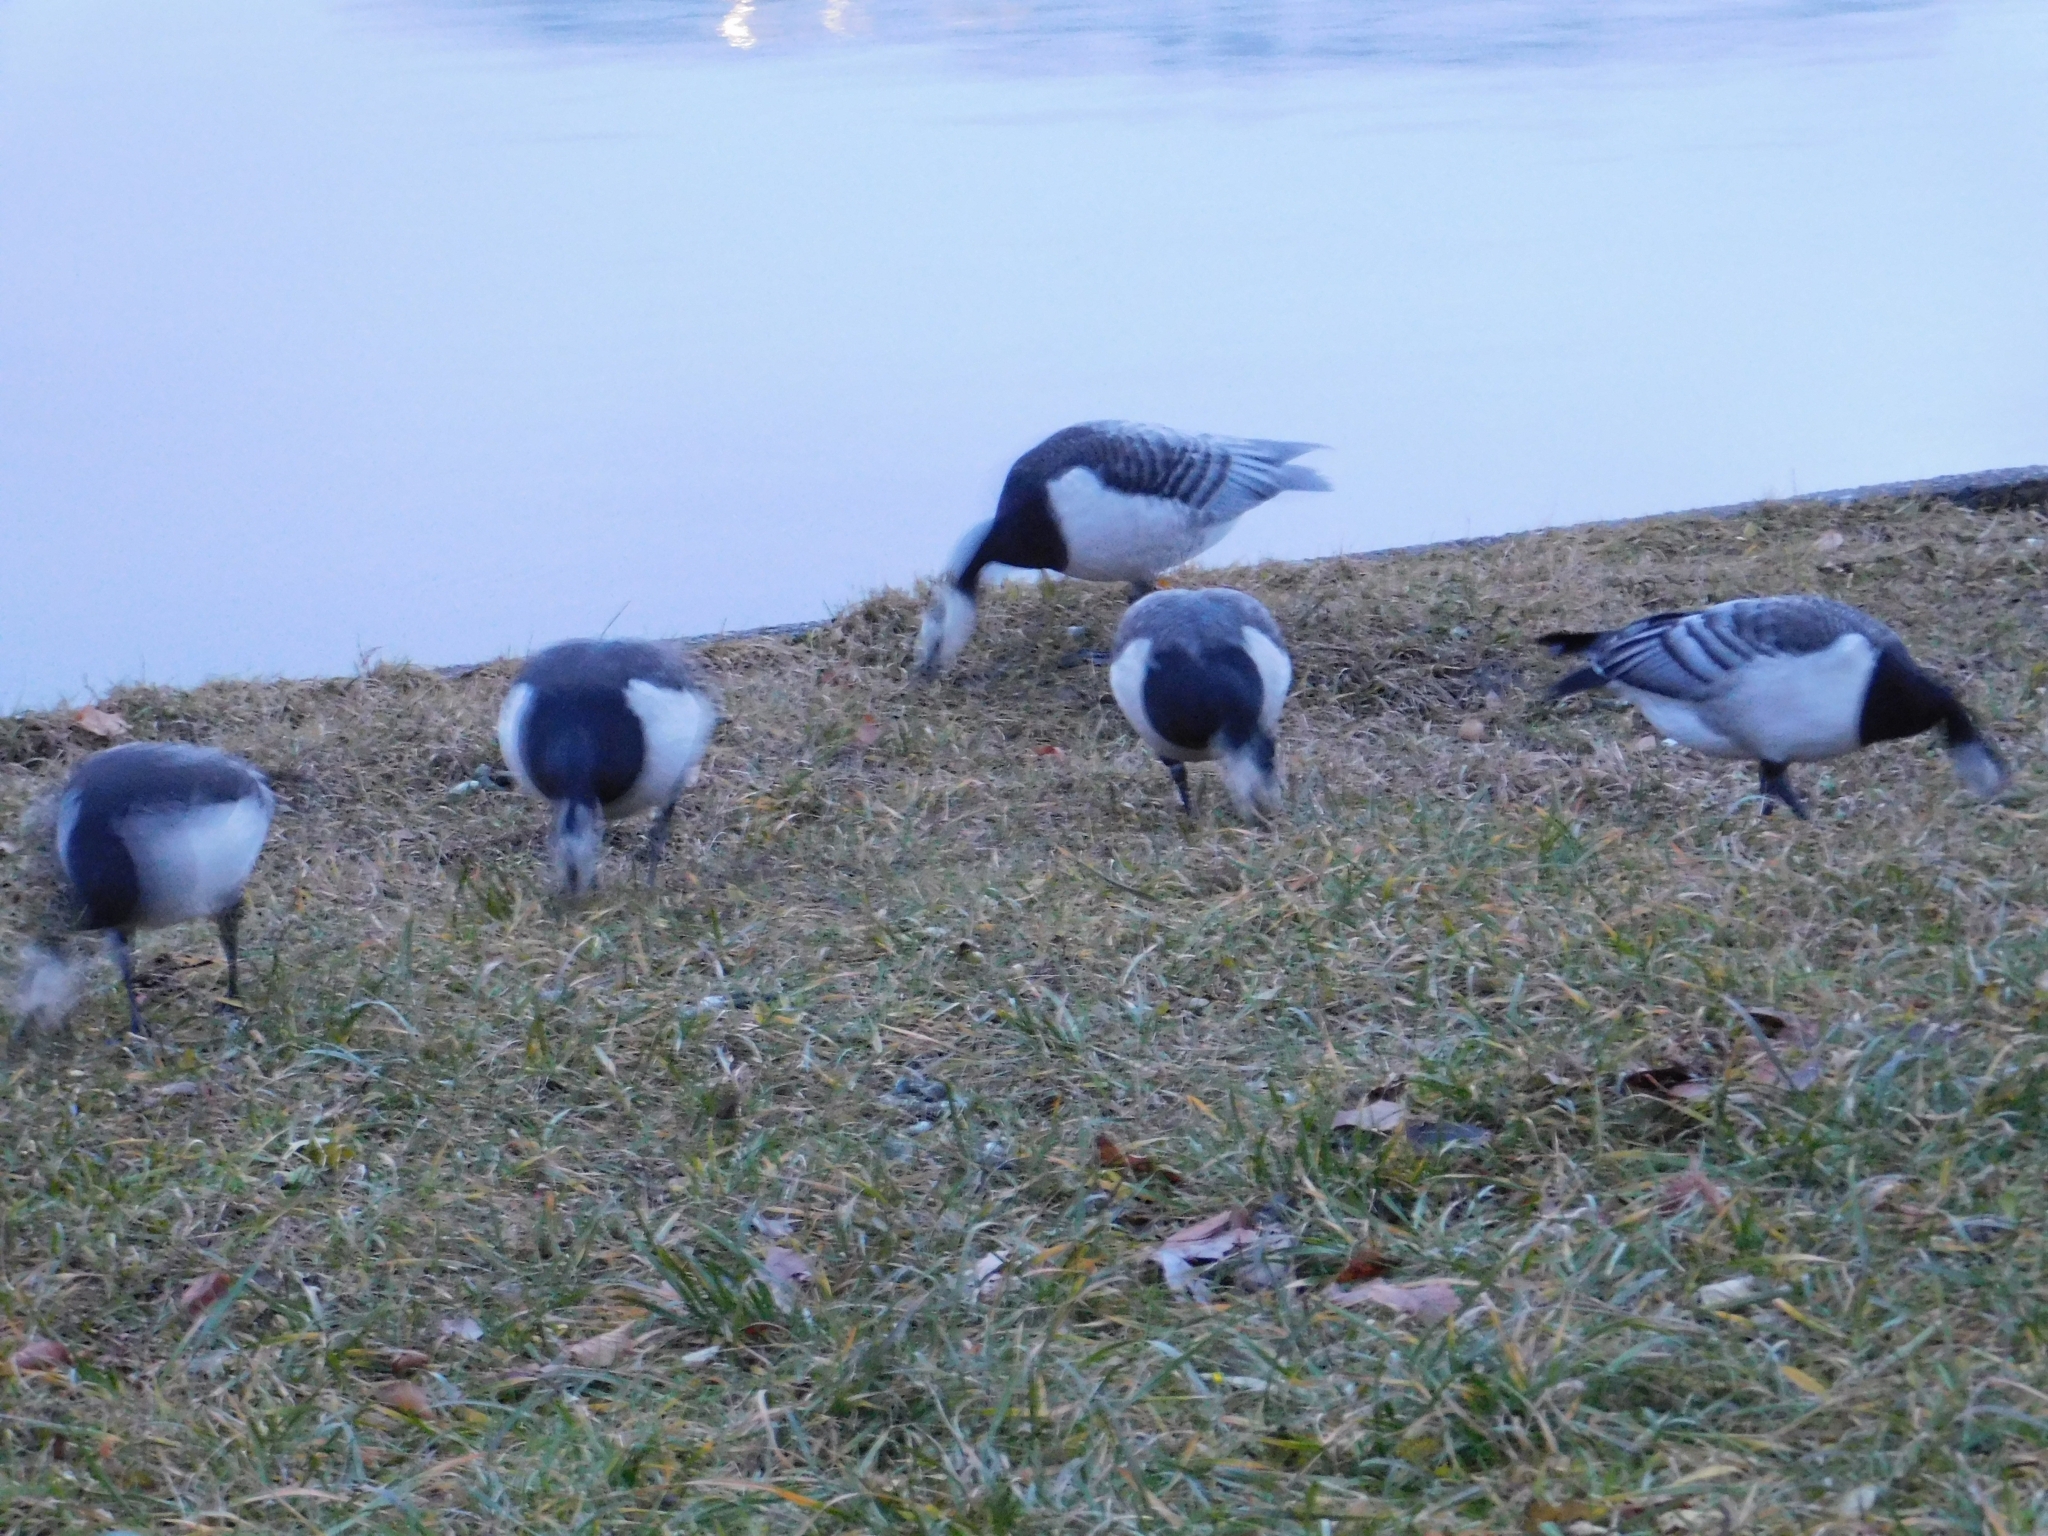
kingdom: Animalia
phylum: Chordata
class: Aves
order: Anseriformes
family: Anatidae
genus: Branta
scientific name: Branta leucopsis
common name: Barnacle goose
